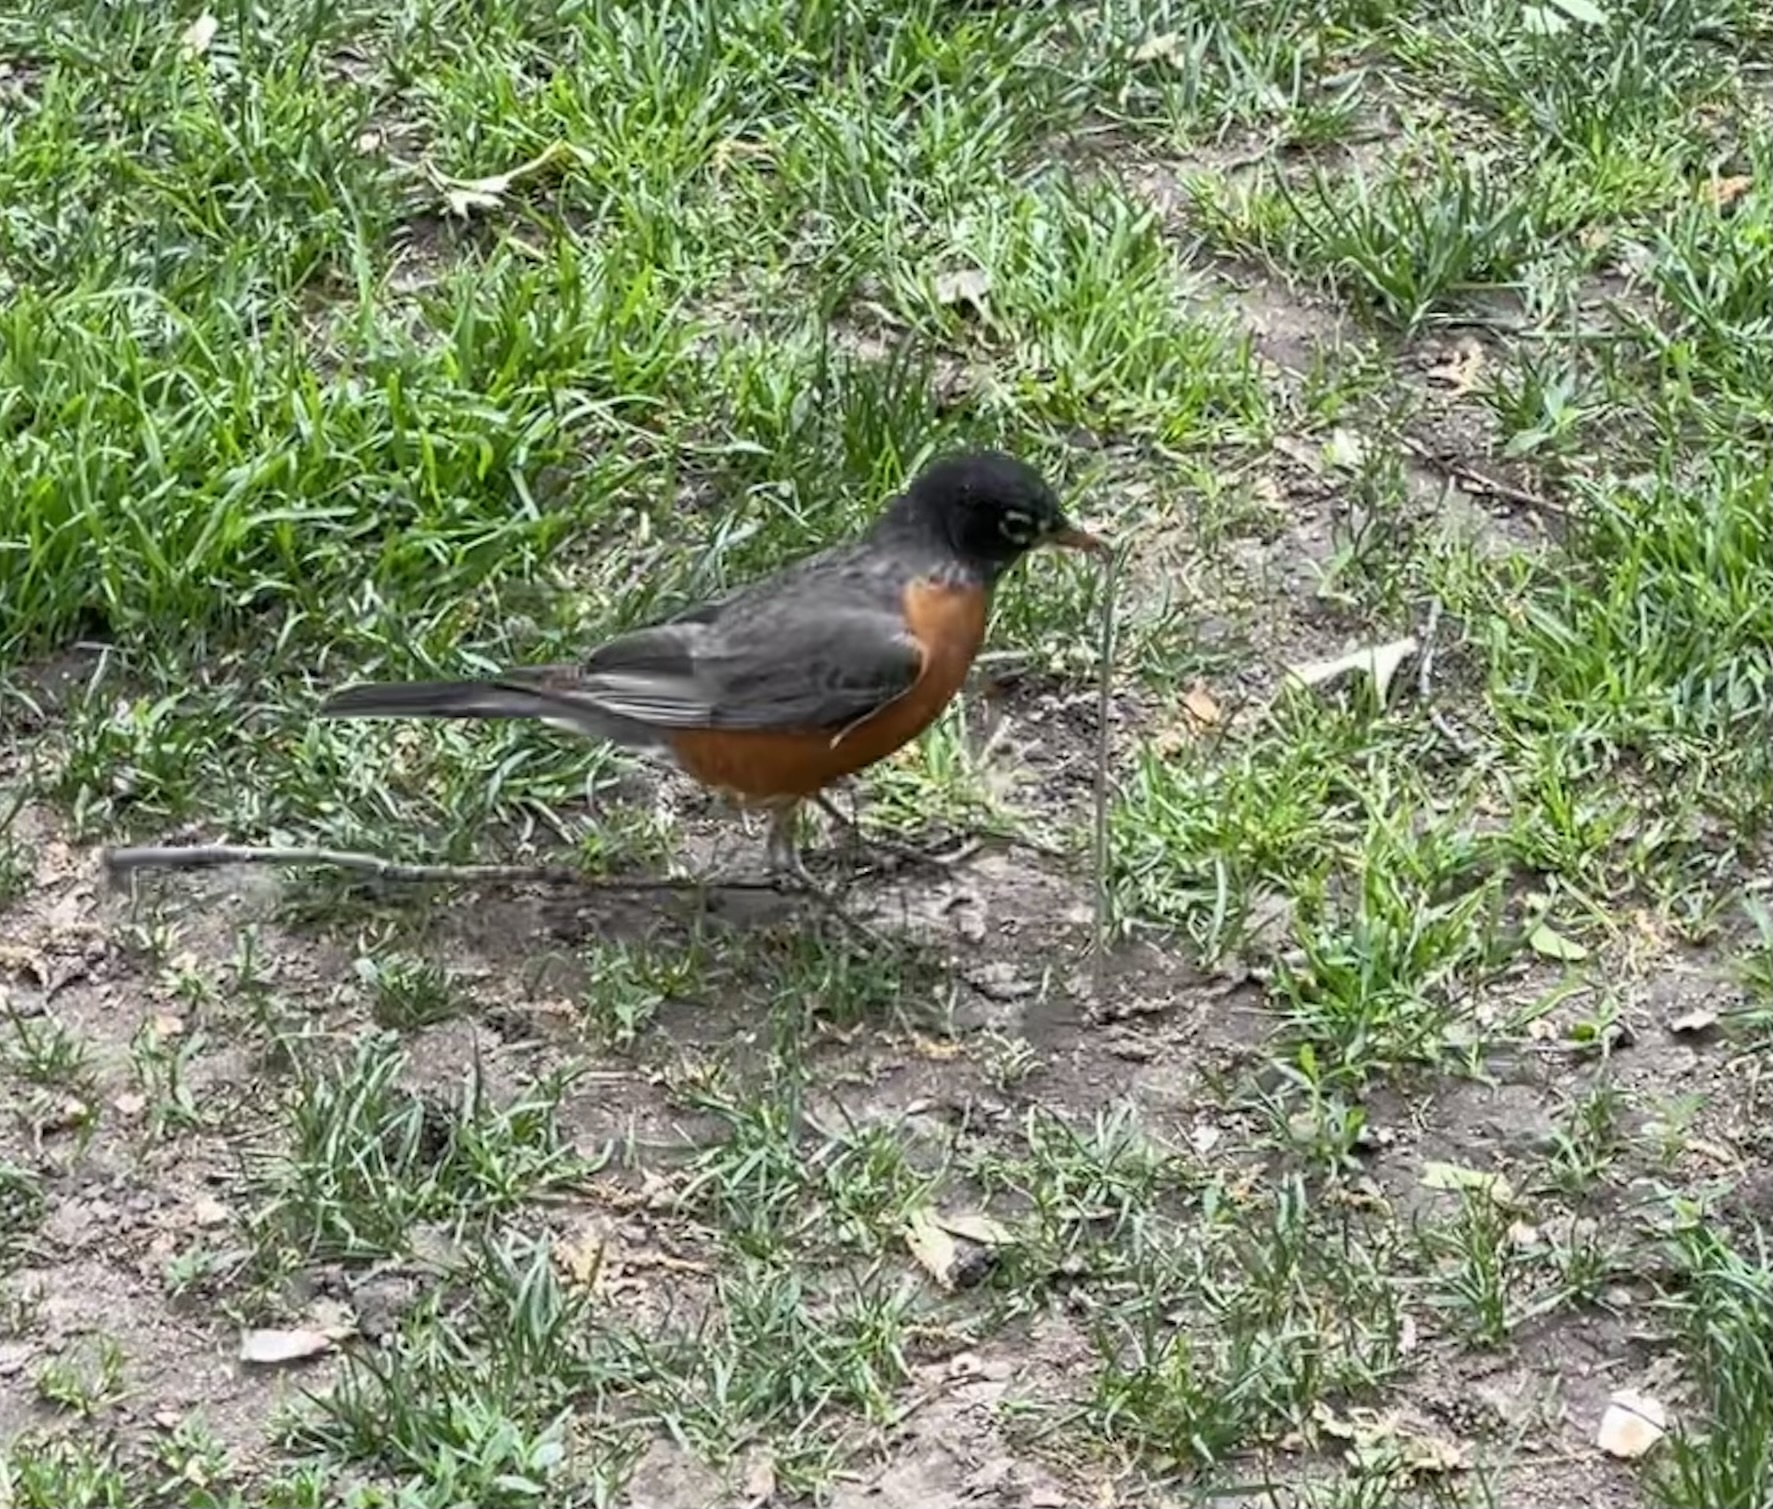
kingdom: Animalia
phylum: Chordata
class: Aves
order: Passeriformes
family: Turdidae
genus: Turdus
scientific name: Turdus migratorius
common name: American robin
